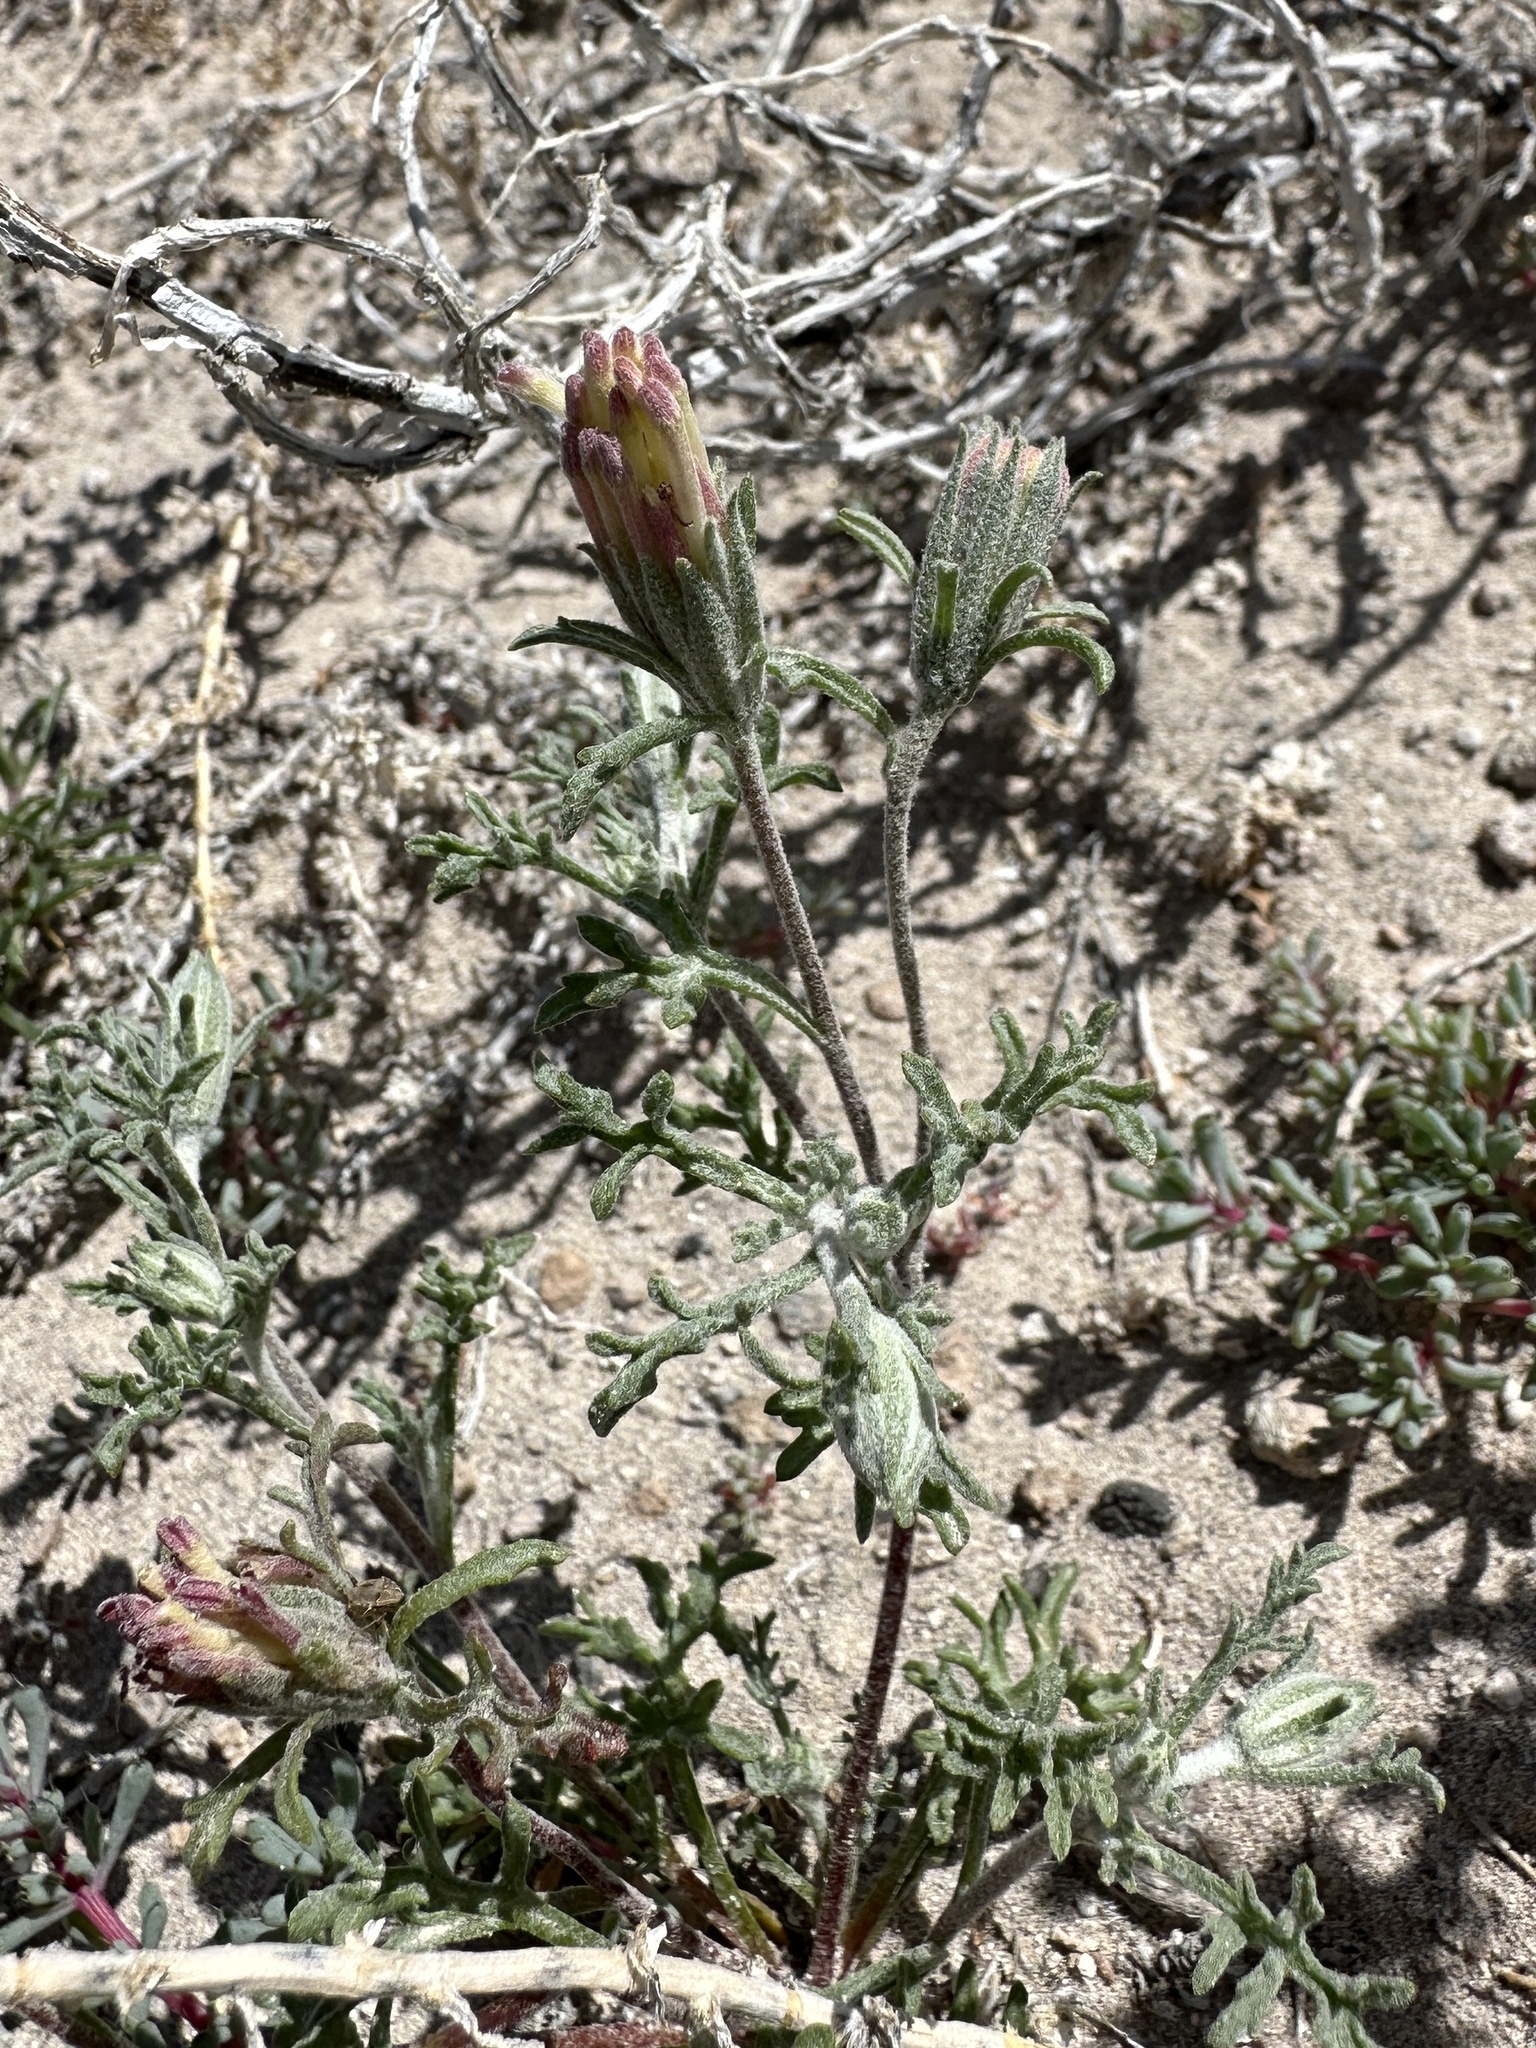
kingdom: Plantae
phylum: Tracheophyta
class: Magnoliopsida
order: Asterales
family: Asteraceae
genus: Chaenactis
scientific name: Chaenactis macrantha
